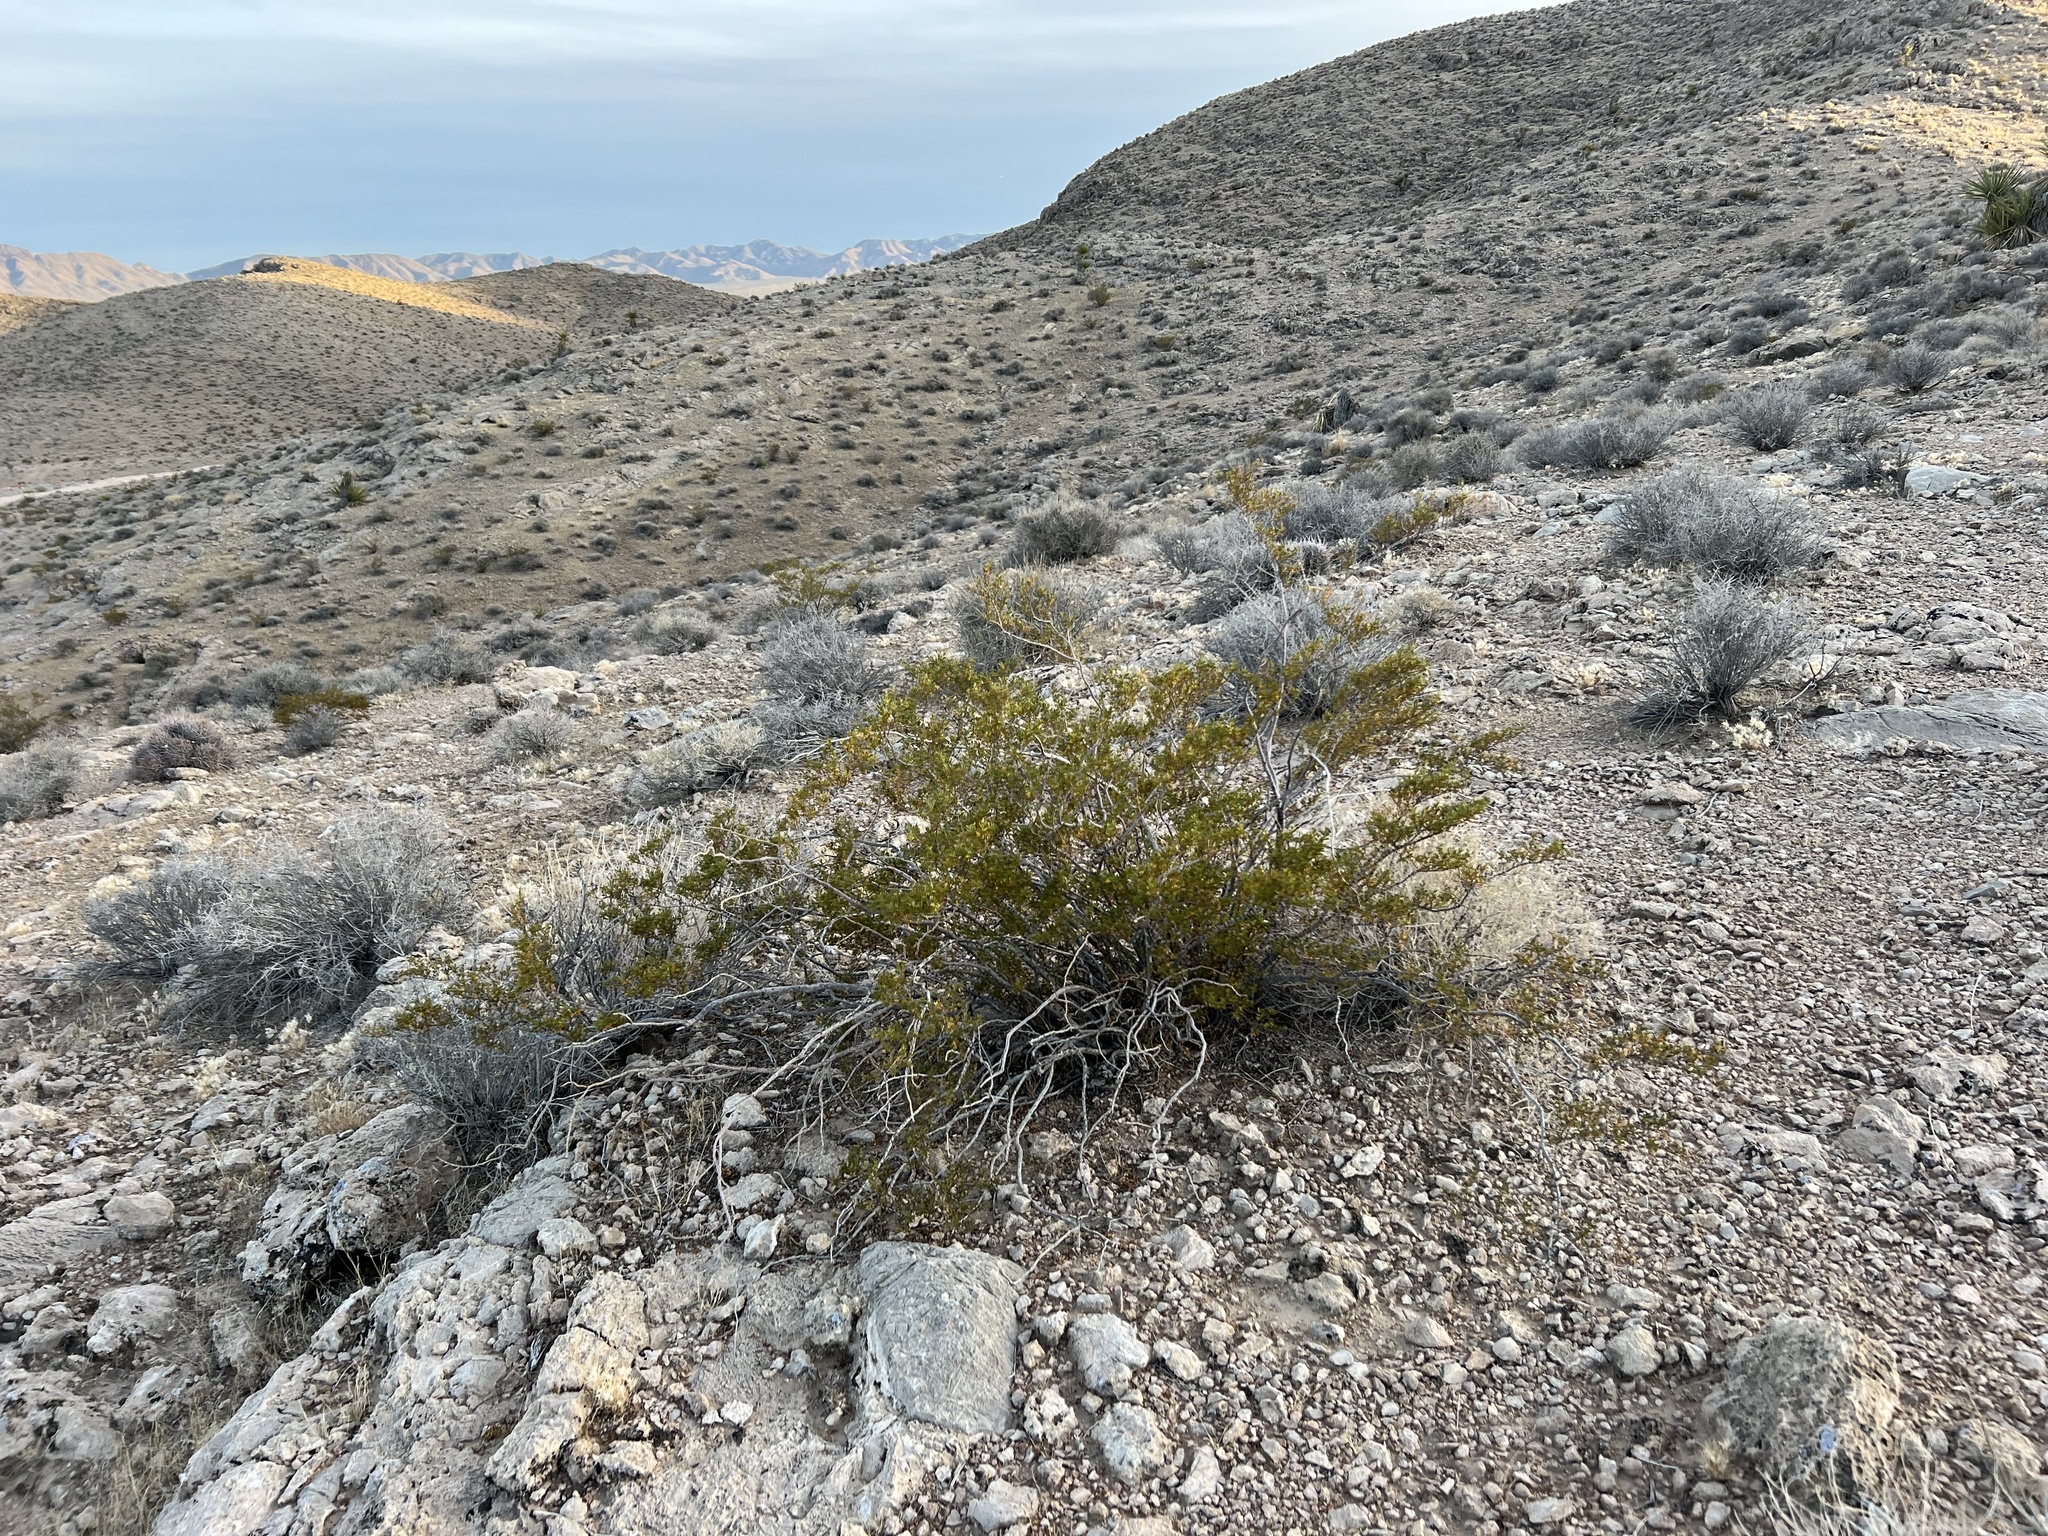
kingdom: Plantae
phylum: Tracheophyta
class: Magnoliopsida
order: Zygophyllales
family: Zygophyllaceae
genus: Larrea
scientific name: Larrea tridentata
